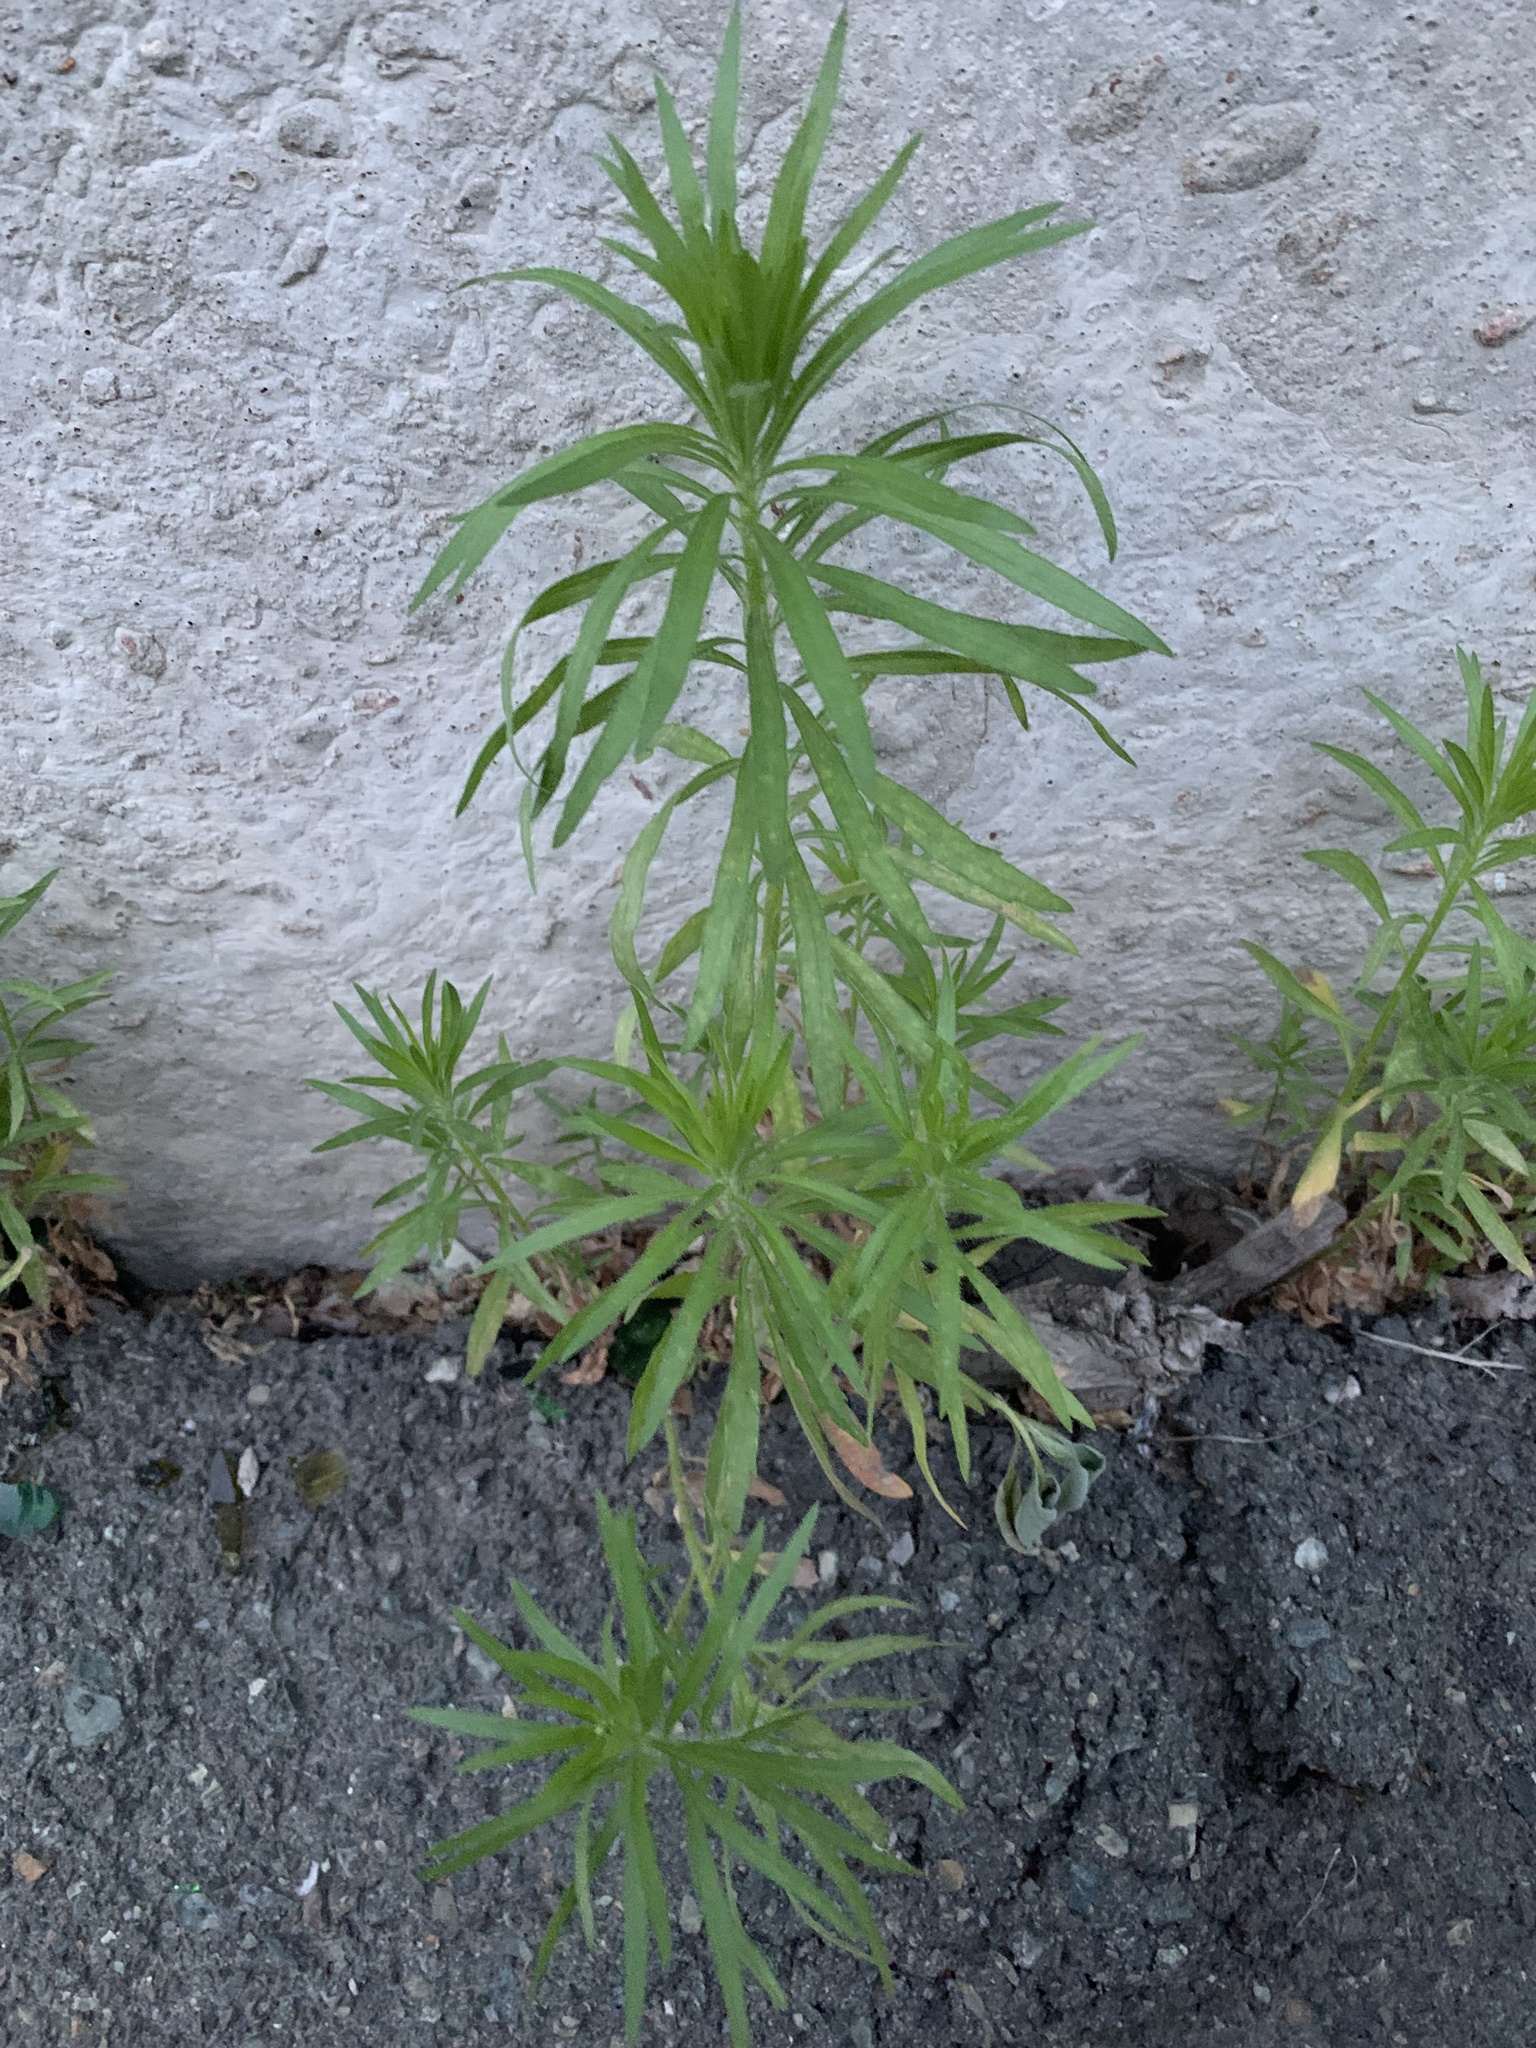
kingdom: Plantae
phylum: Tracheophyta
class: Magnoliopsida
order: Asterales
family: Asteraceae
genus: Erigeron
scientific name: Erigeron canadensis
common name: Canadian fleabane
